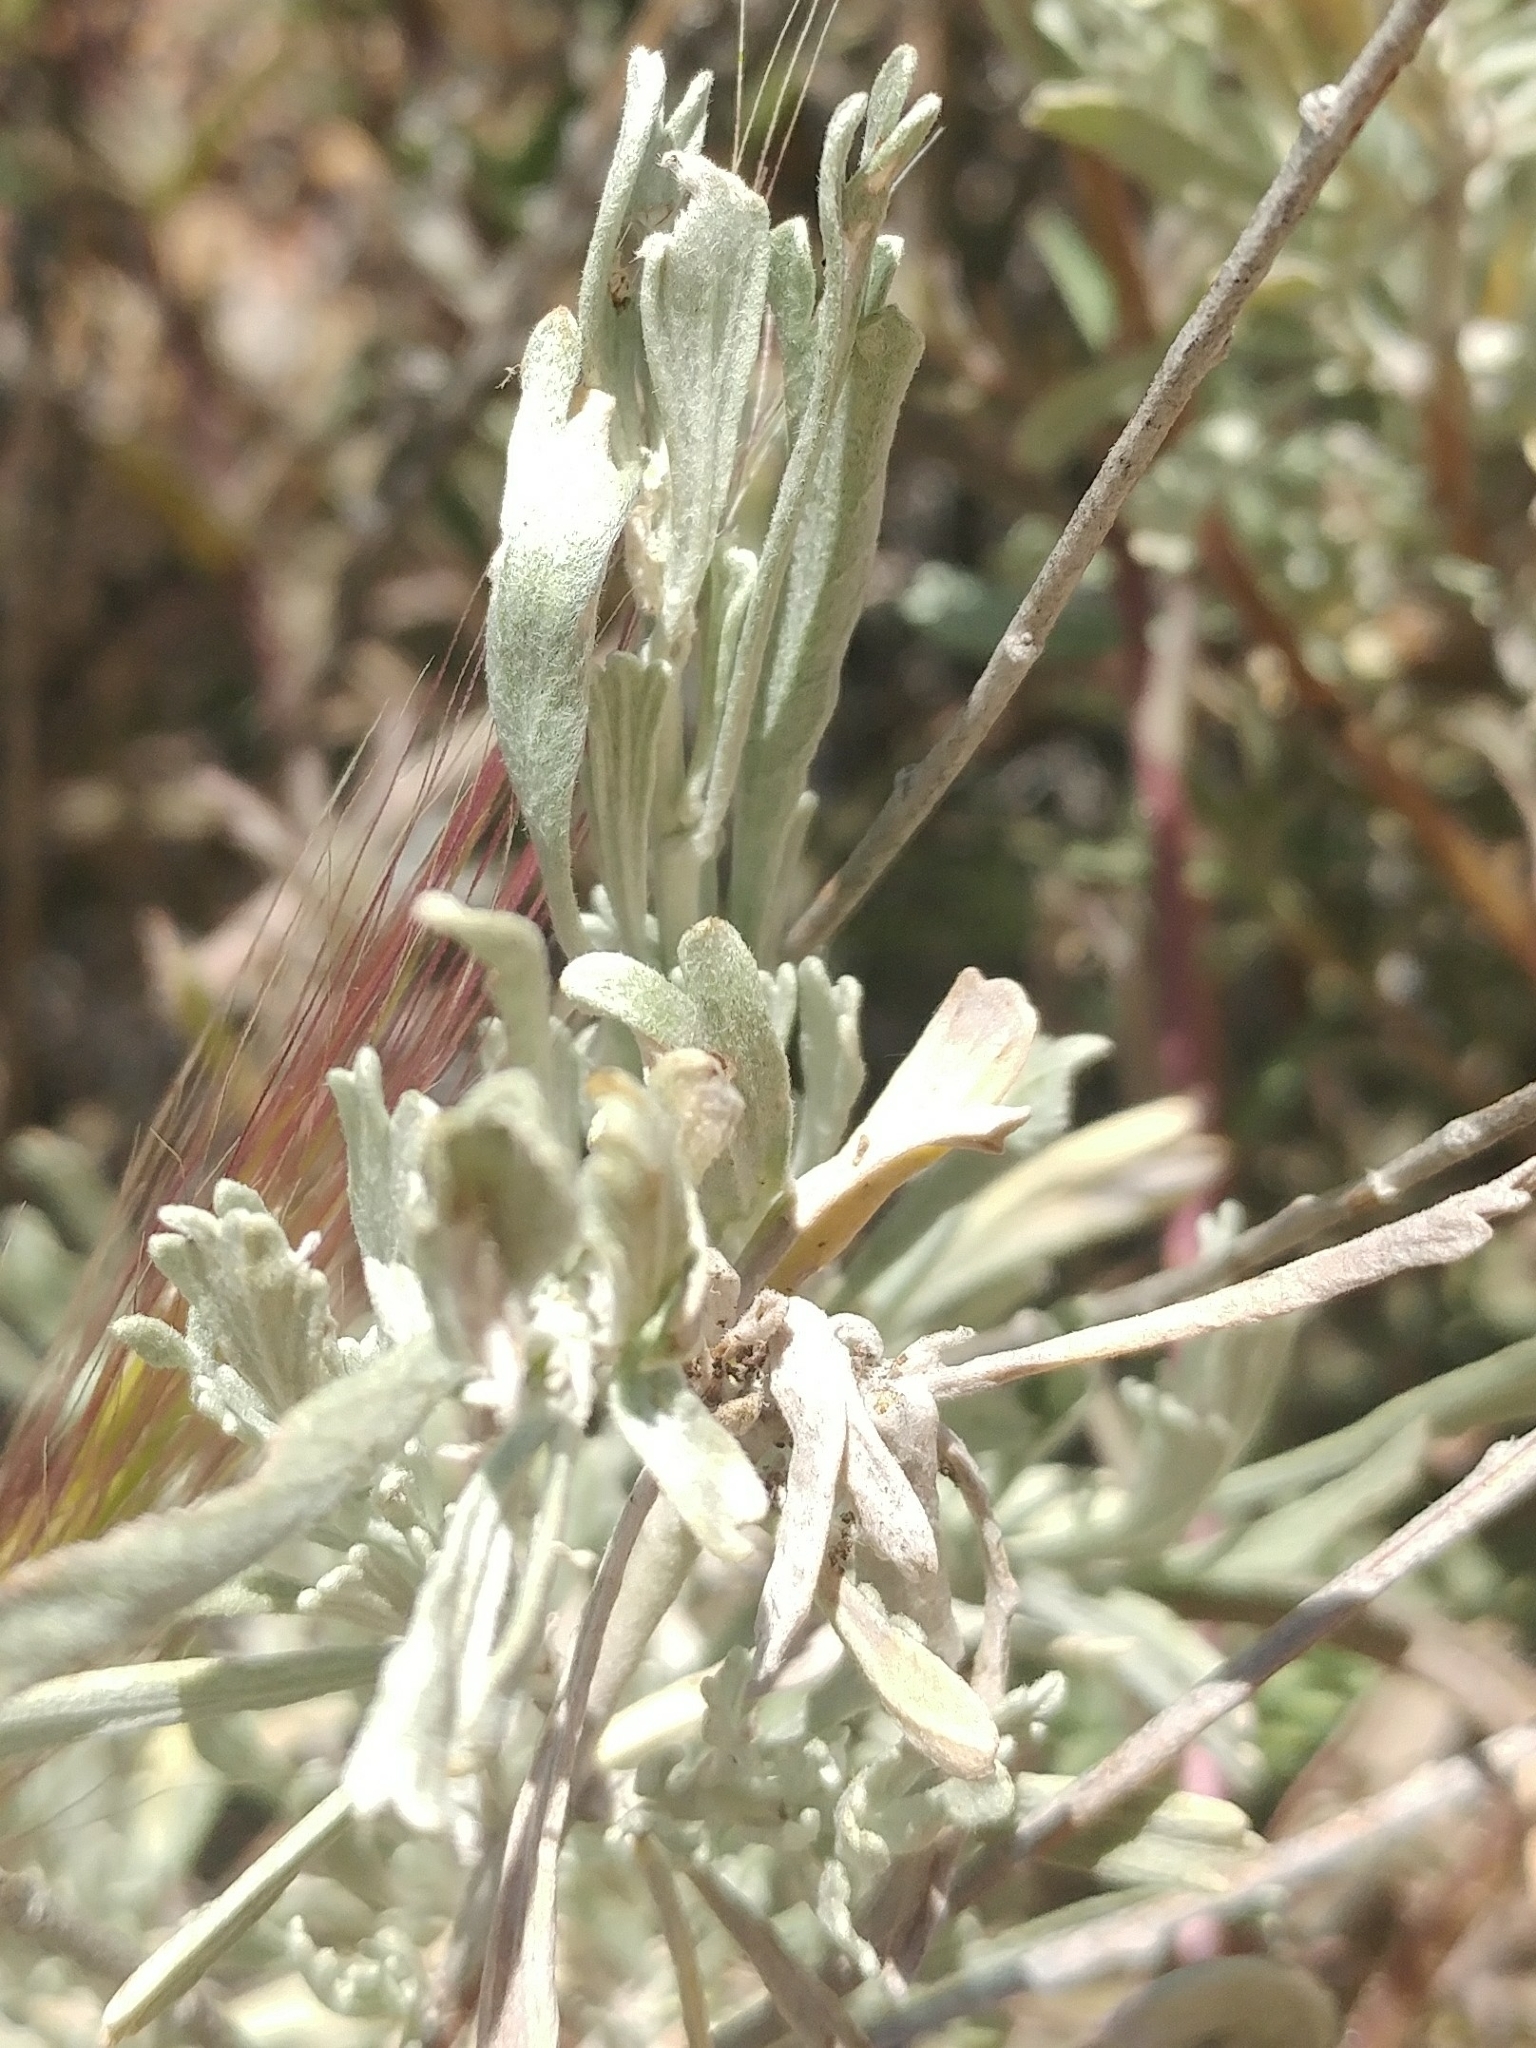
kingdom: Plantae
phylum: Tracheophyta
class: Magnoliopsida
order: Asterales
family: Asteraceae
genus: Artemisia
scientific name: Artemisia tridentata
